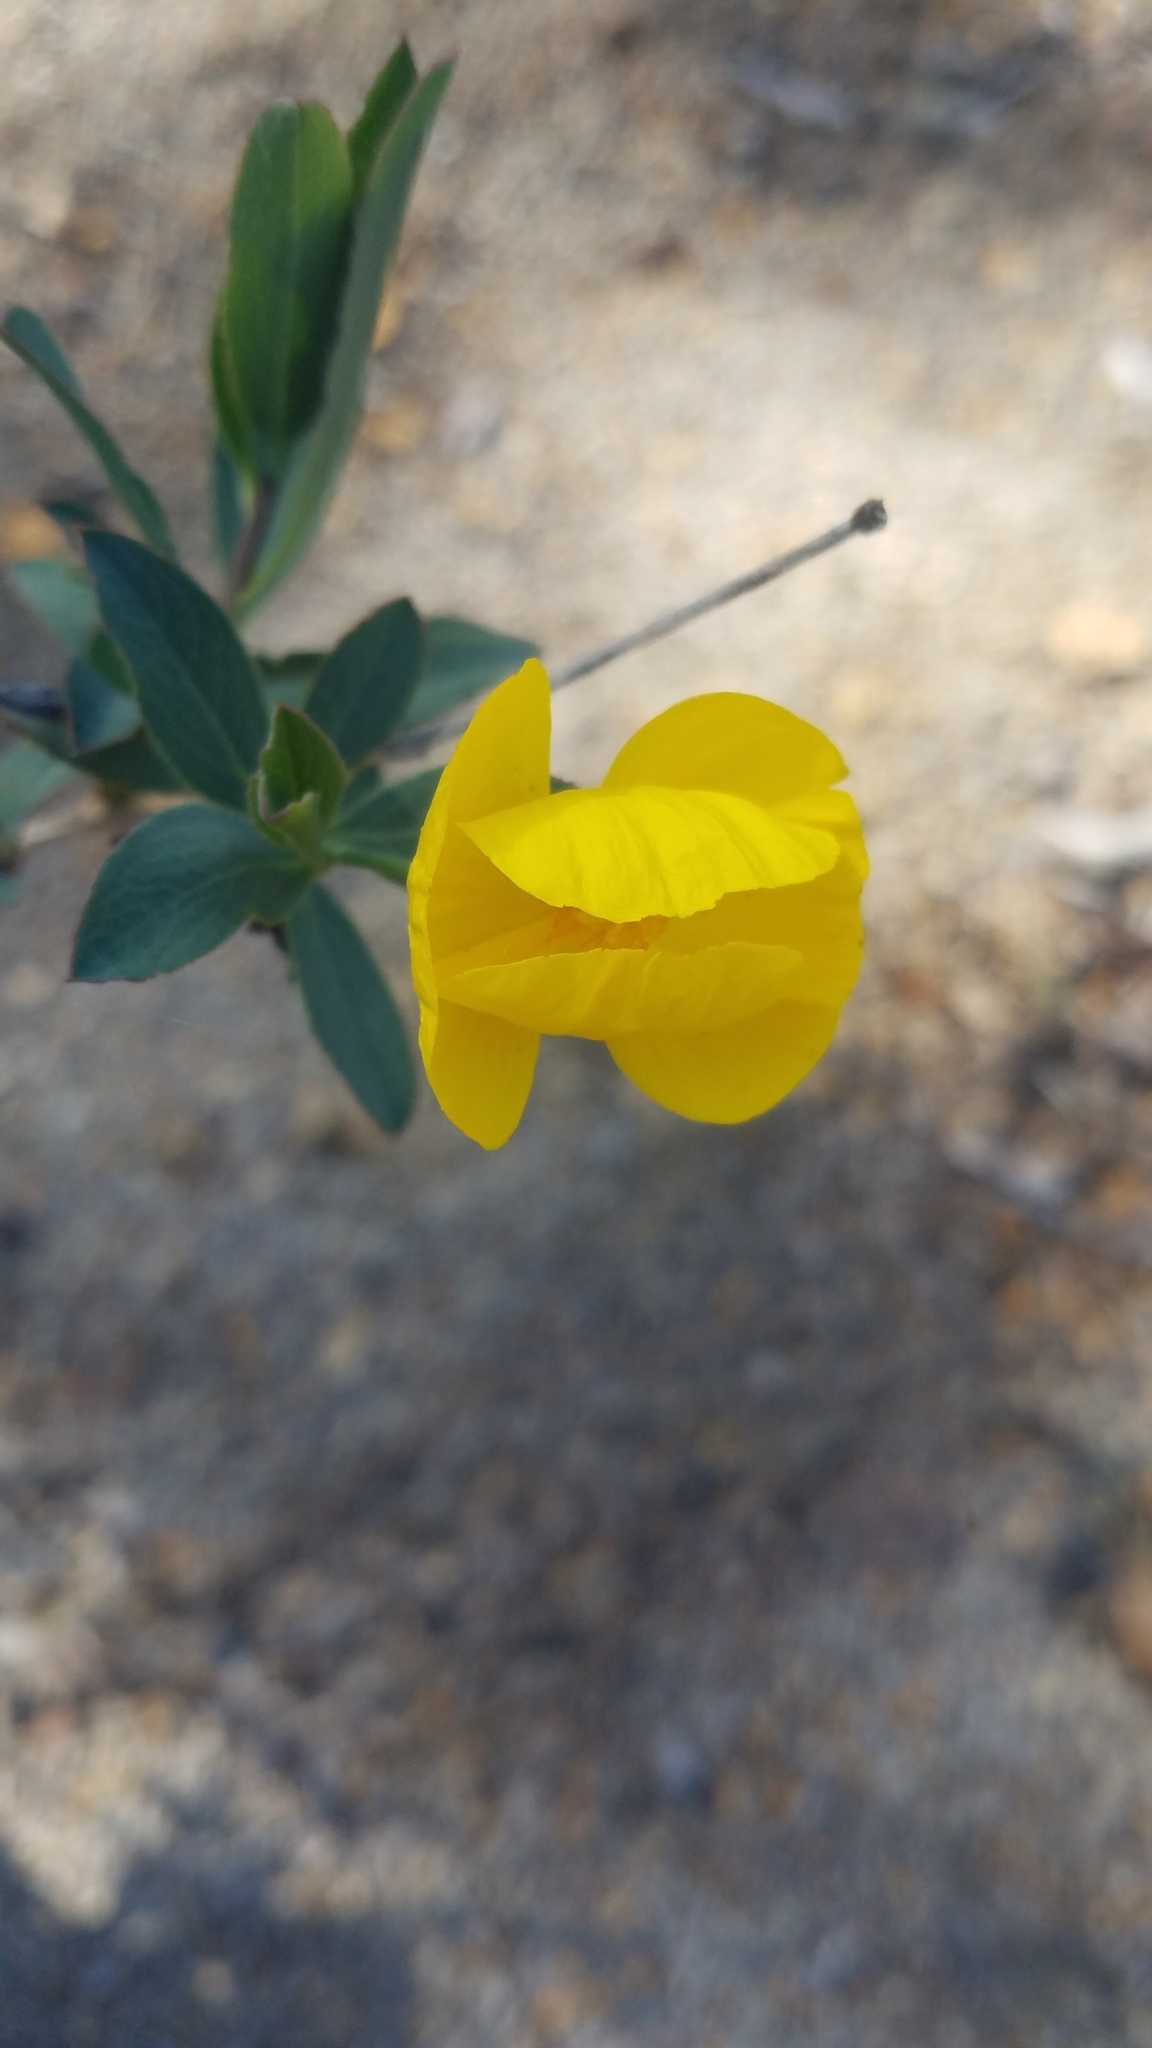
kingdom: Plantae
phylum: Tracheophyta
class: Magnoliopsida
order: Myrtales
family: Onagraceae
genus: Taraxia
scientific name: Taraxia ovata
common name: Goldeneggs
